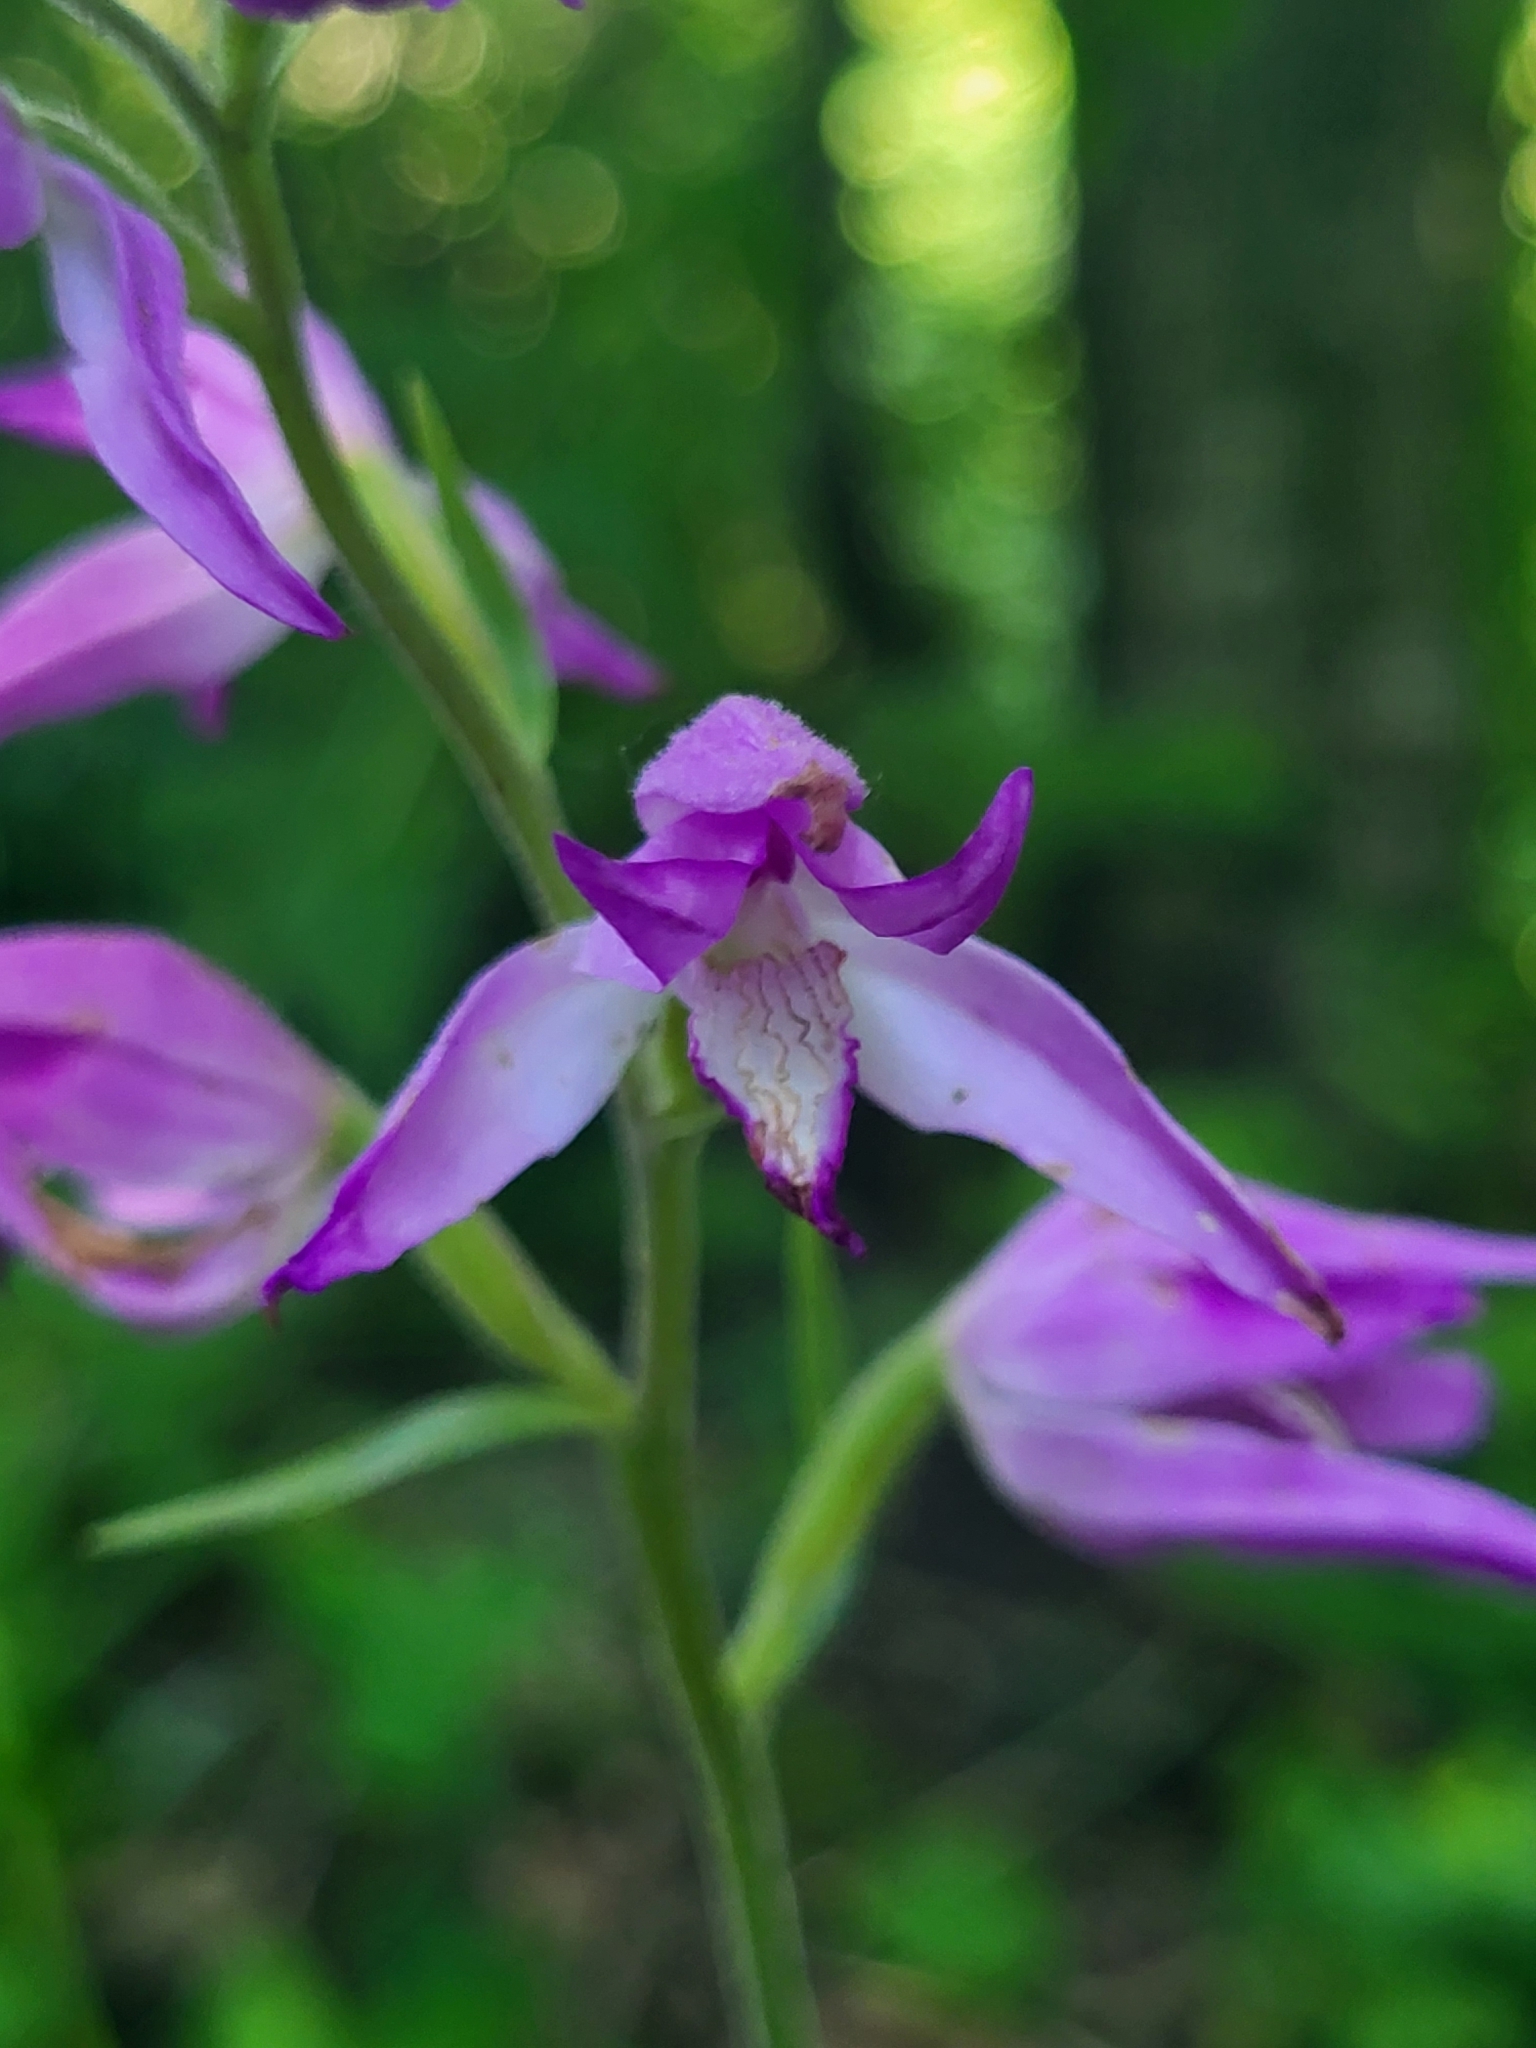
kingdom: Plantae
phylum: Tracheophyta
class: Liliopsida
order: Asparagales
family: Orchidaceae
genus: Cephalanthera
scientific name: Cephalanthera rubra
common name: Red helleborine
